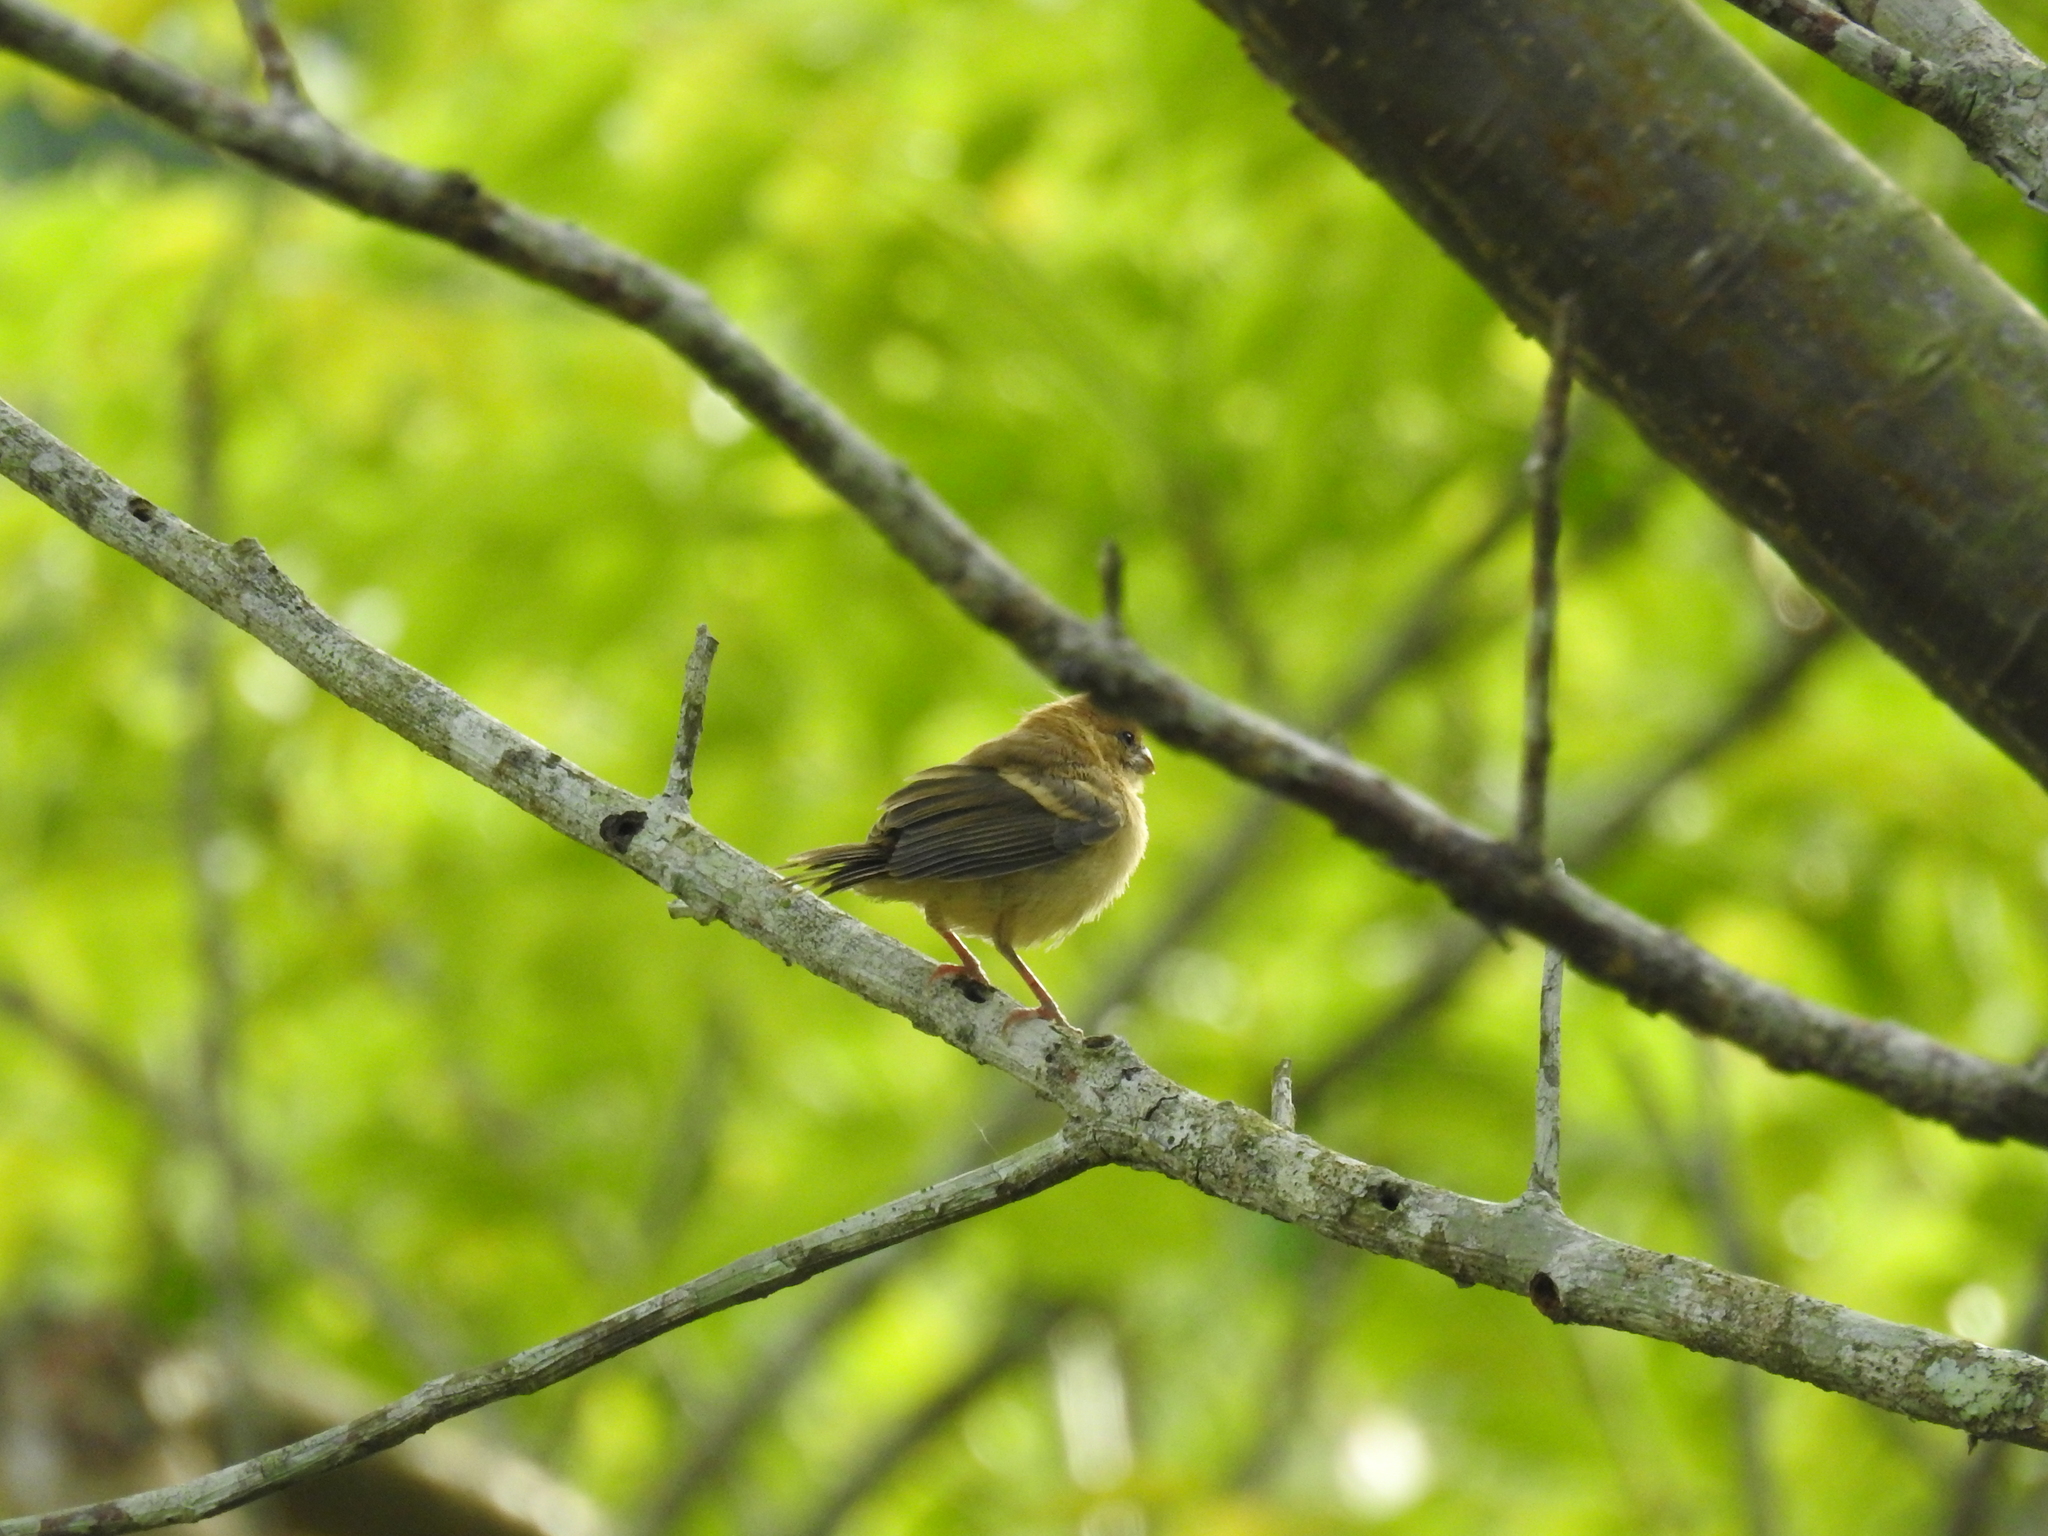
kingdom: Animalia
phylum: Chordata
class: Aves
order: Passeriformes
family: Thraupidae
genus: Sporophila
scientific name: Sporophila morelleti
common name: Morelet's seedeater
